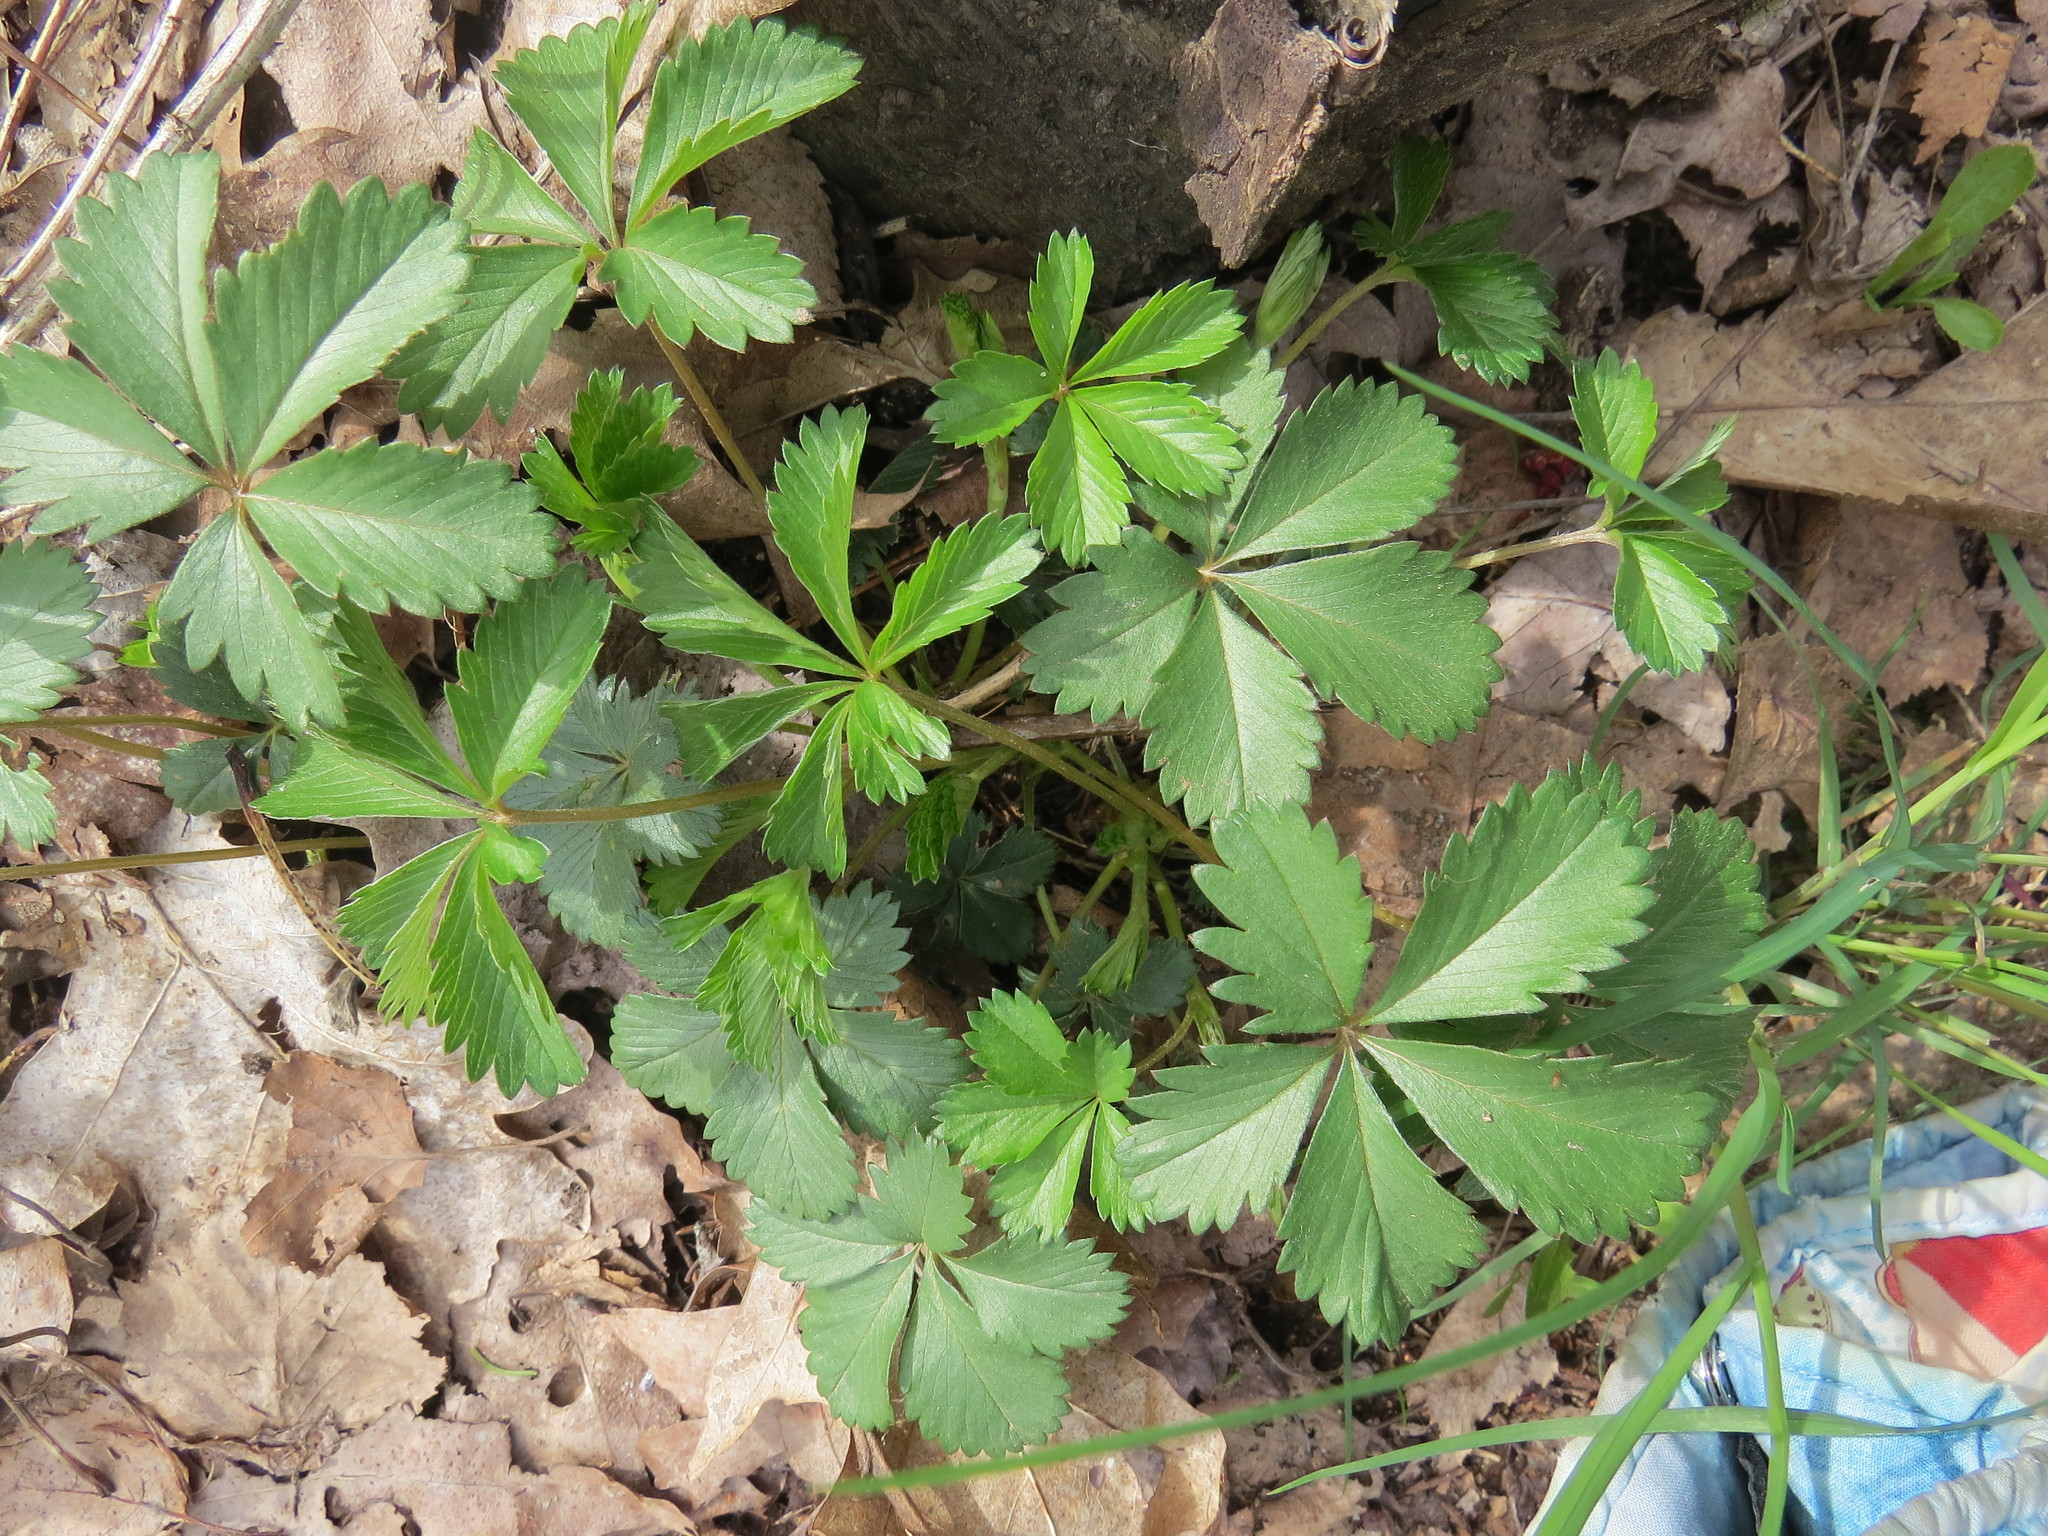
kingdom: Plantae
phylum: Tracheophyta
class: Magnoliopsida
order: Vitales
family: Vitaceae
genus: Parthenocissus
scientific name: Parthenocissus quinquefolia
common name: Virginia-creeper
